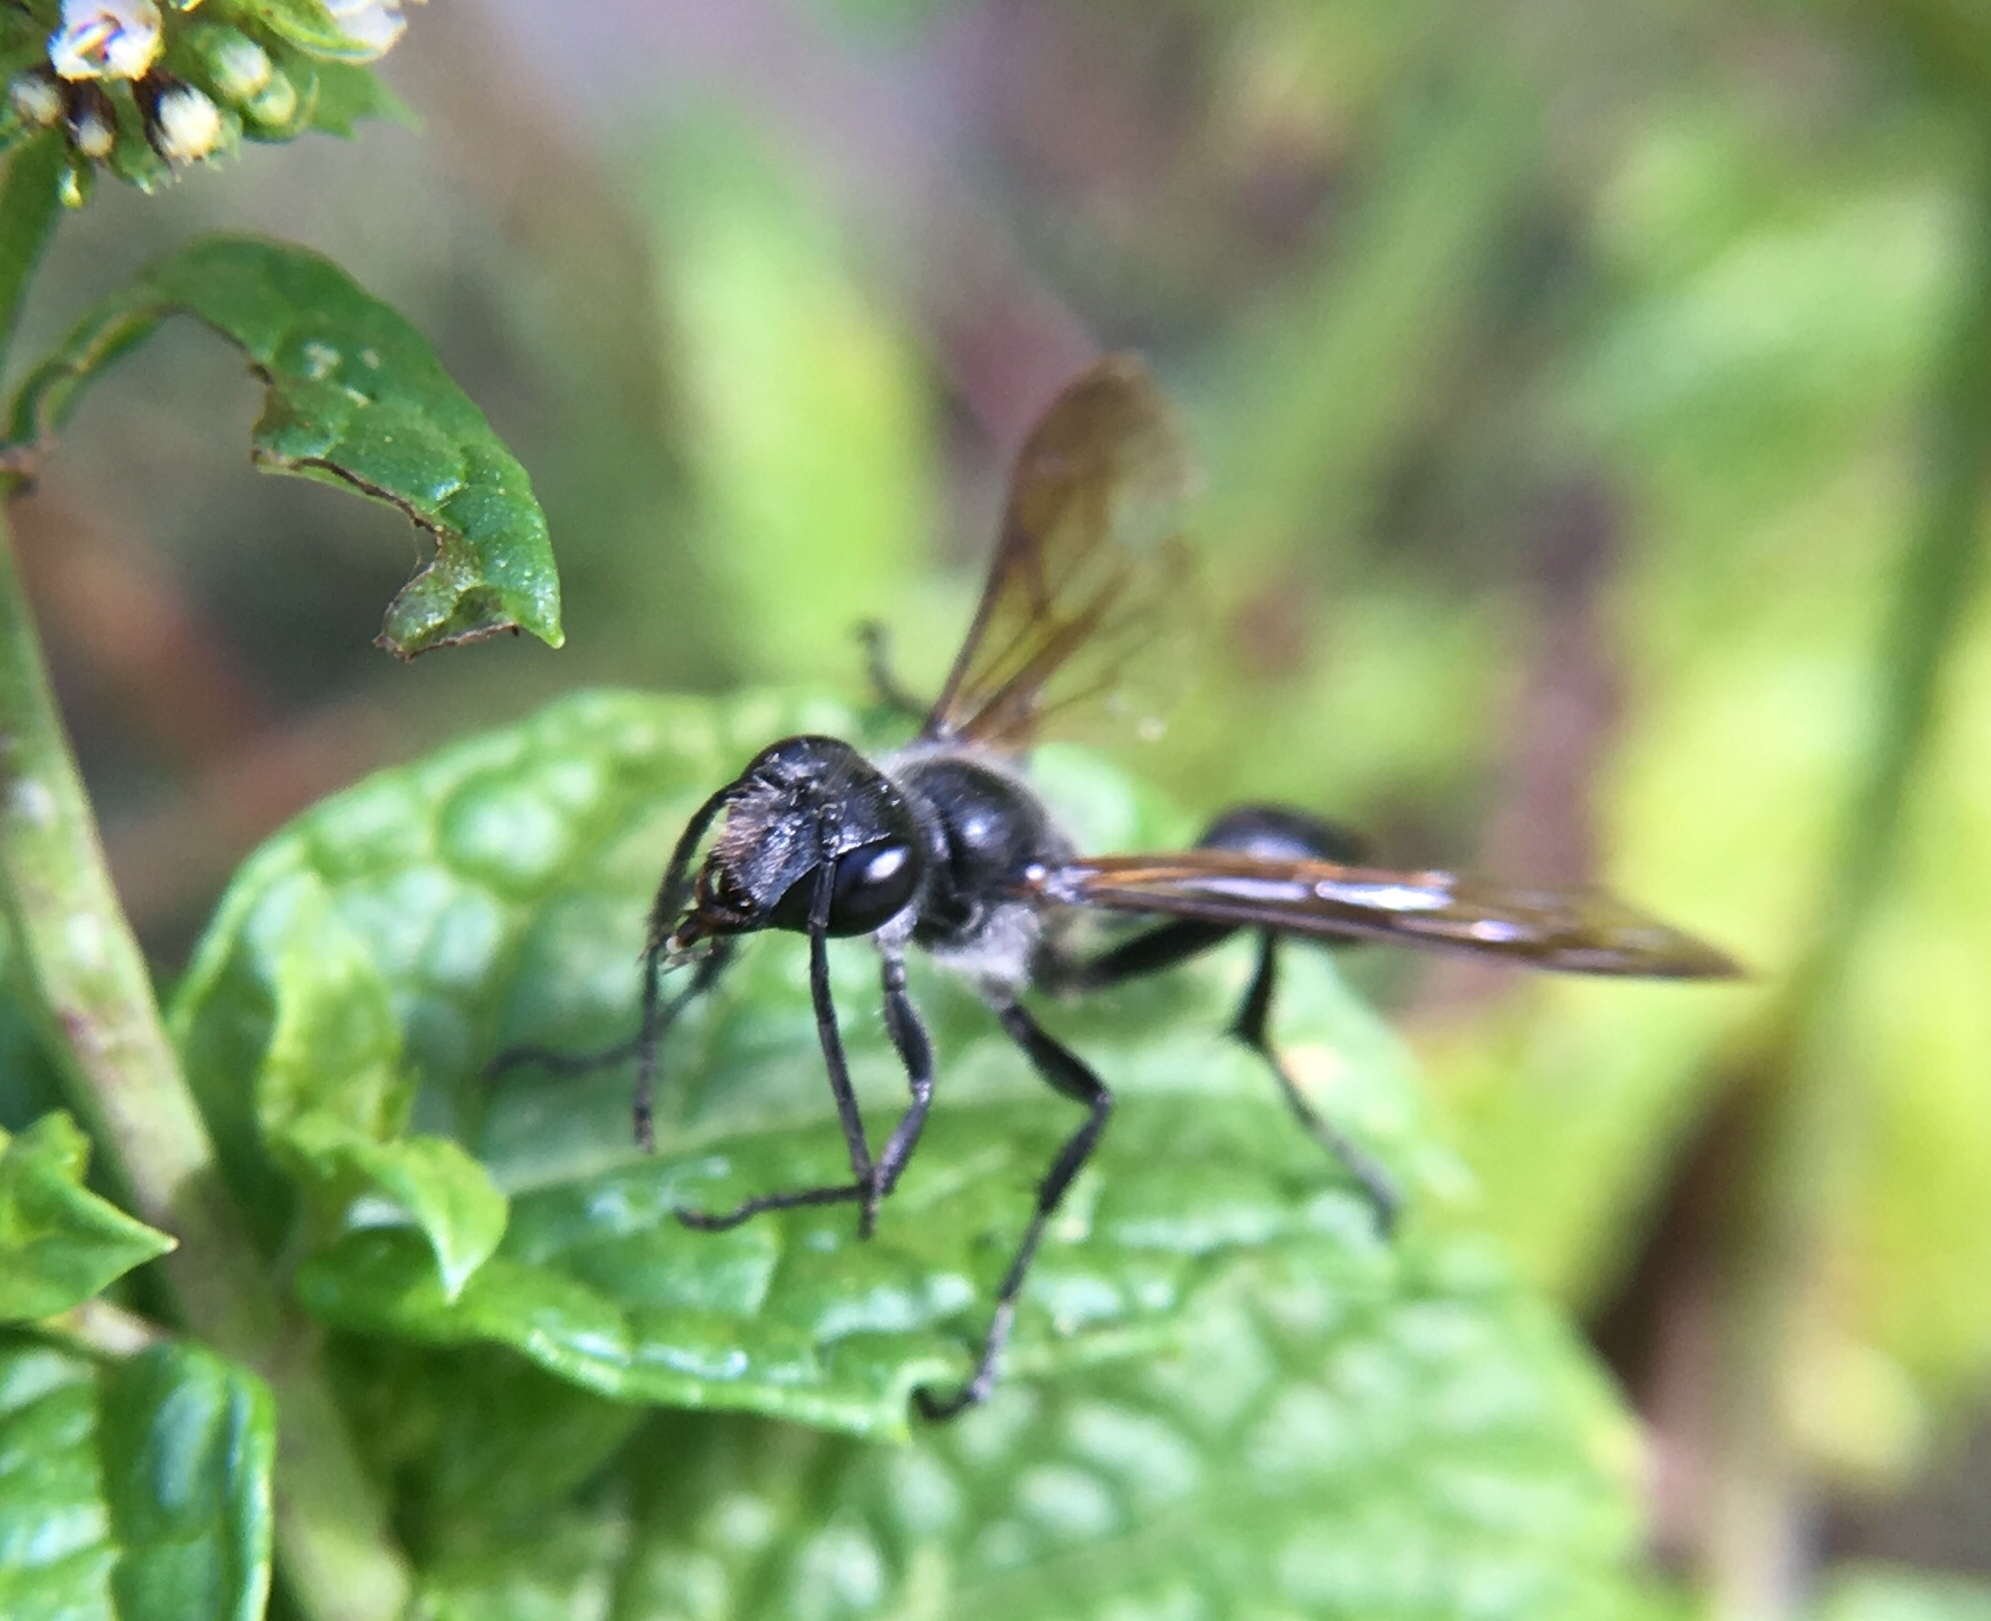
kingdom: Animalia
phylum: Arthropoda
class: Insecta
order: Hymenoptera
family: Sphecidae
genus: Isodontia
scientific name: Isodontia mexicana
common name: Mud dauber
